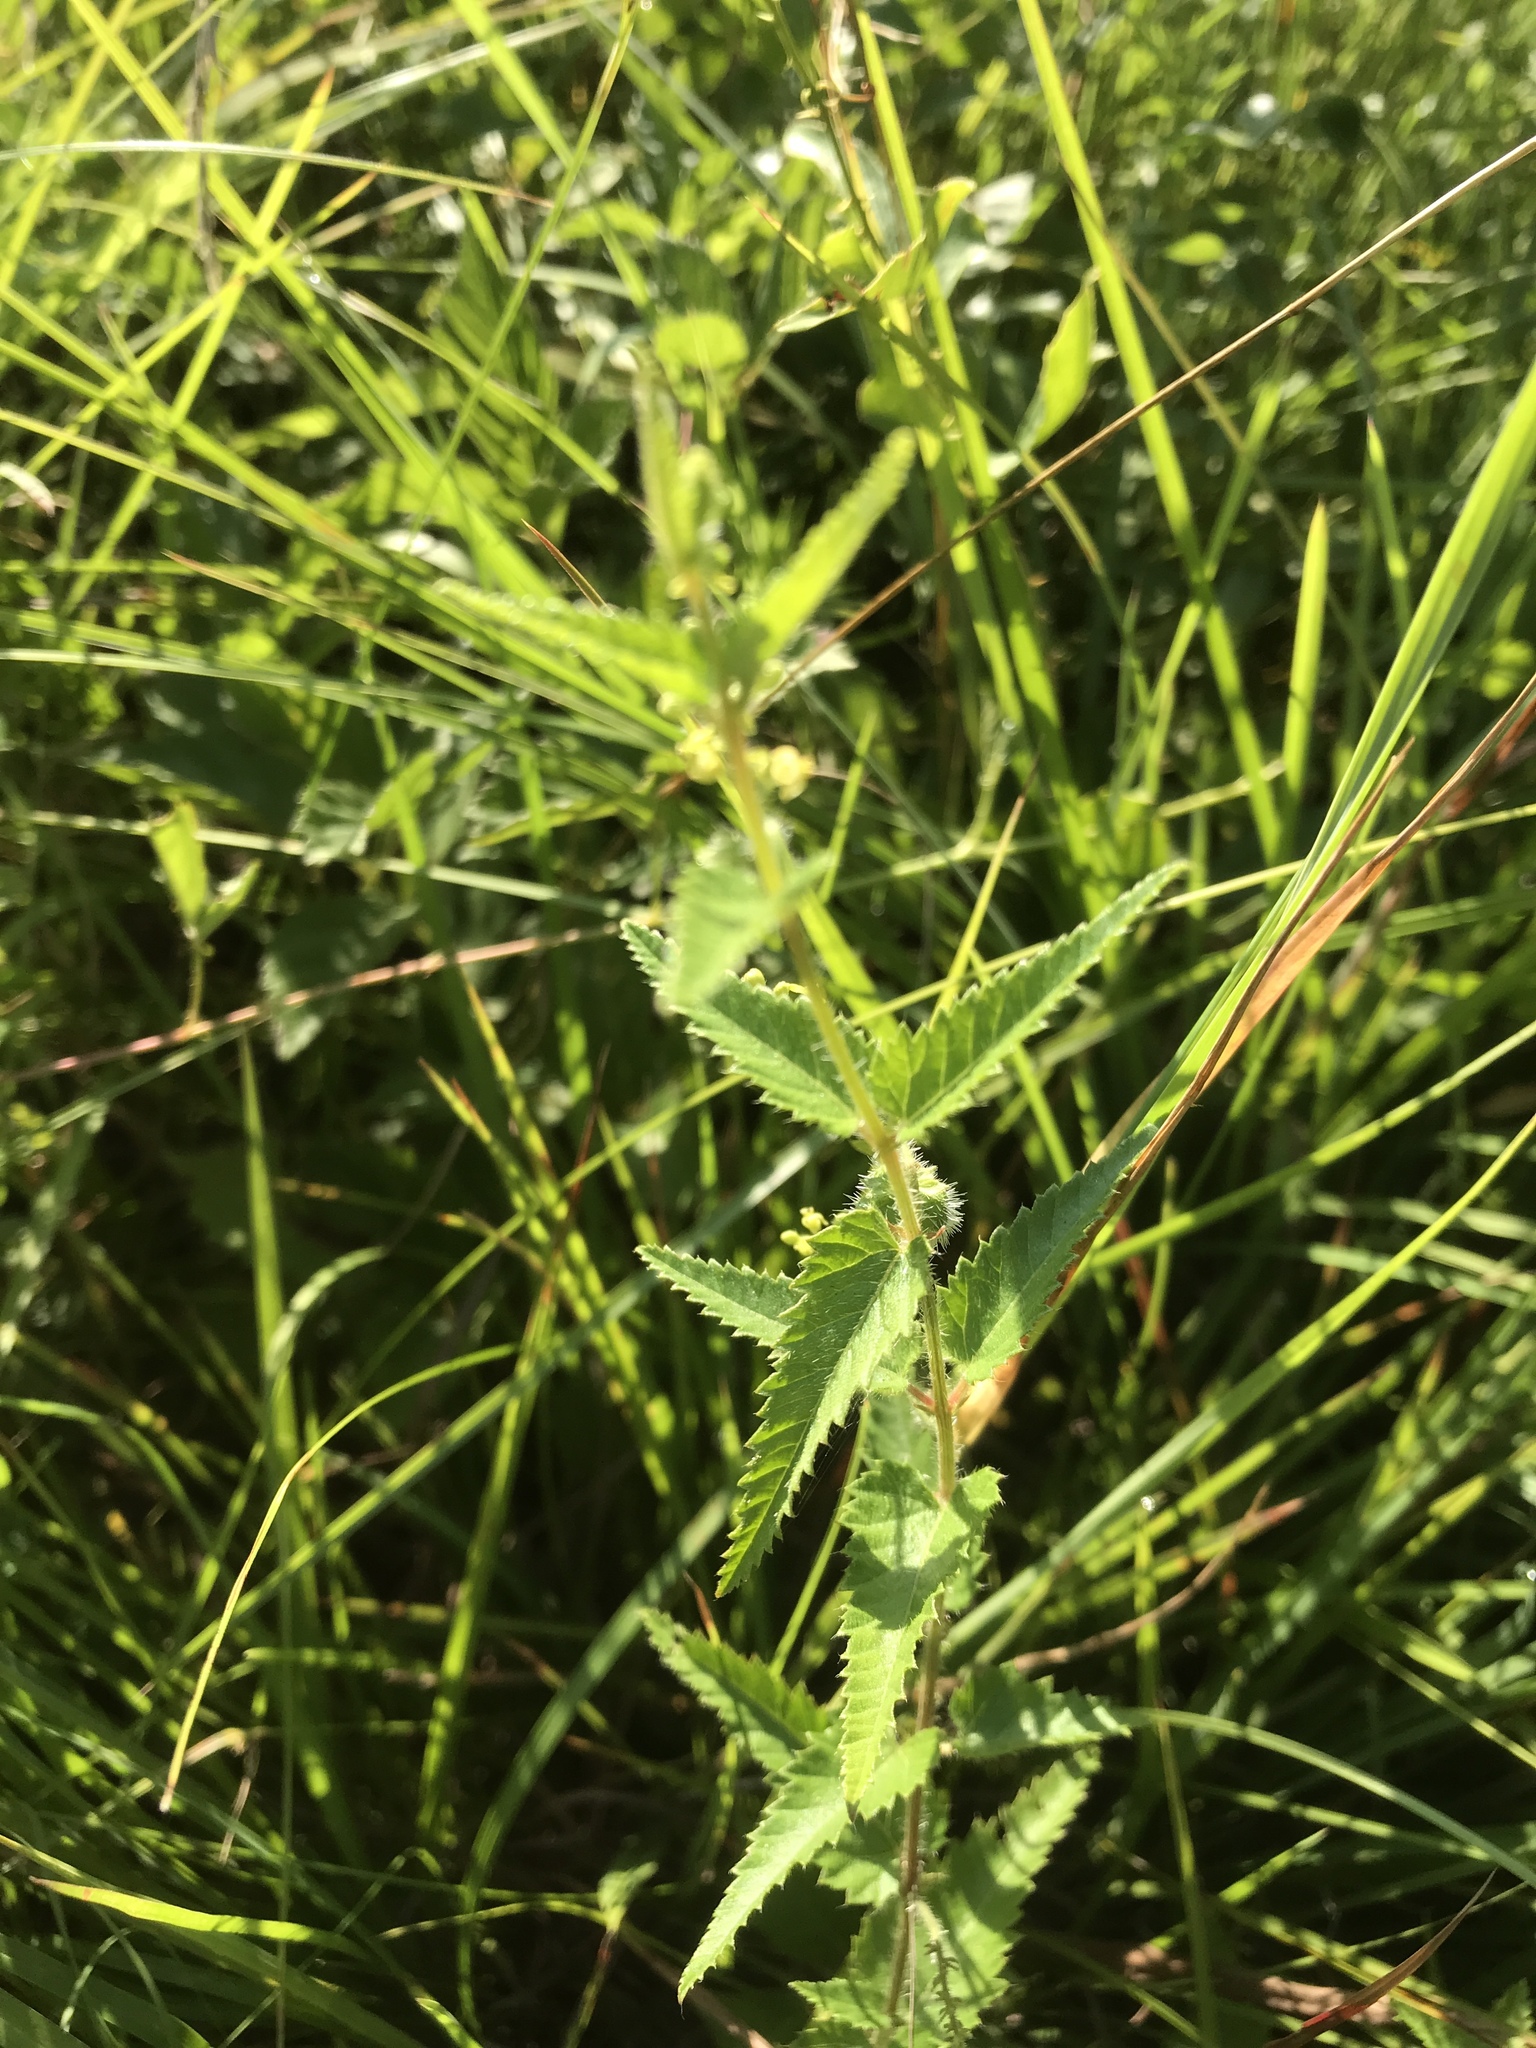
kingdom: Plantae
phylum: Tracheophyta
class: Magnoliopsida
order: Malpighiales
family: Euphorbiaceae
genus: Tragia
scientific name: Tragia urticifolia
